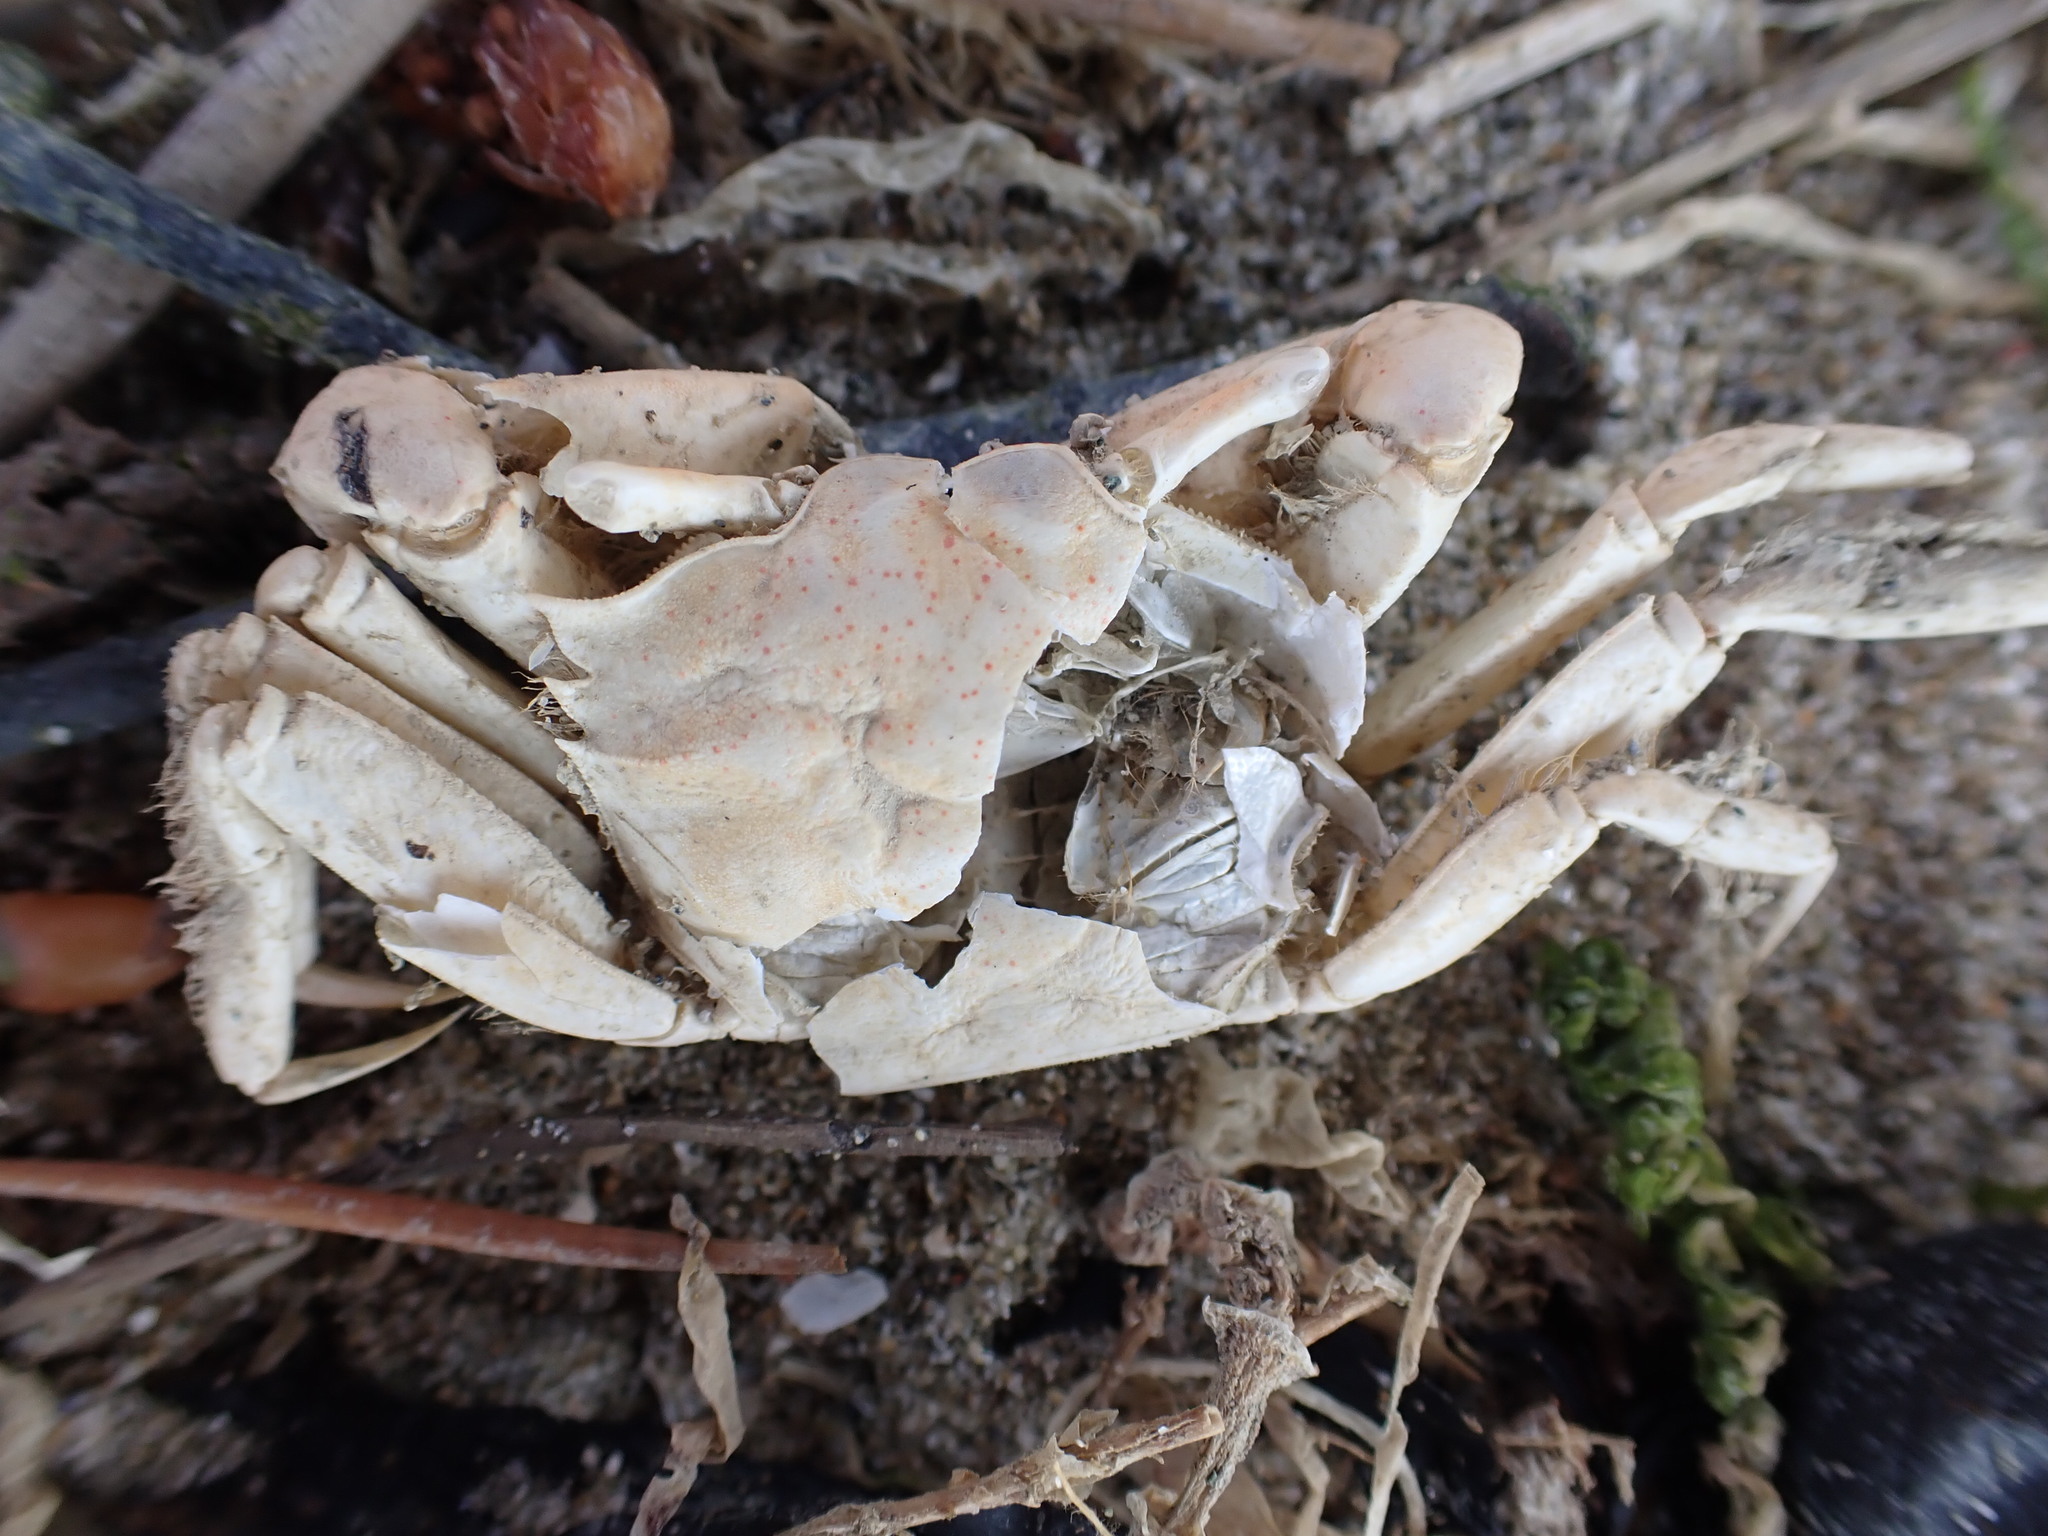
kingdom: Animalia
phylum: Arthropoda
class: Malacostraca
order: Decapoda
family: Macrophthalmidae
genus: Hemiplax
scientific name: Hemiplax hirtipes
